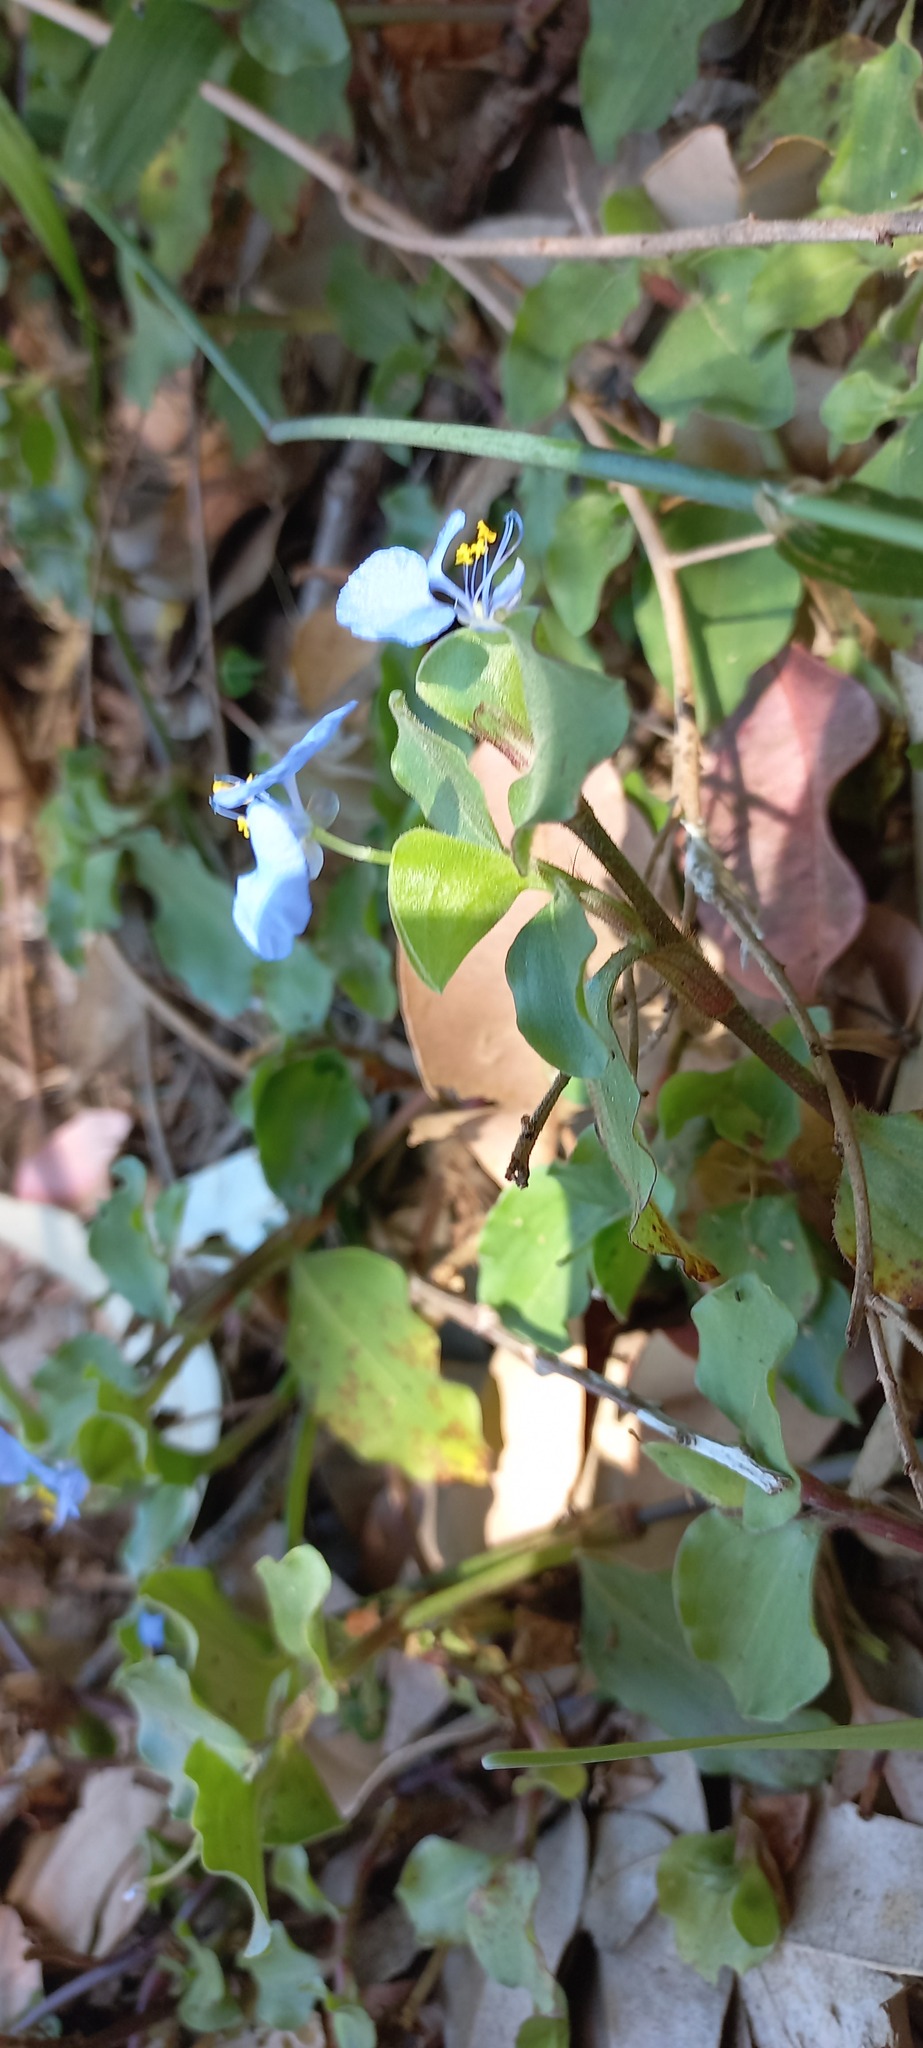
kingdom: Plantae
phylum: Tracheophyta
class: Liliopsida
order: Commelinales
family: Commelinaceae
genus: Commelina
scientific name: Commelina benghalensis
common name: Jio
